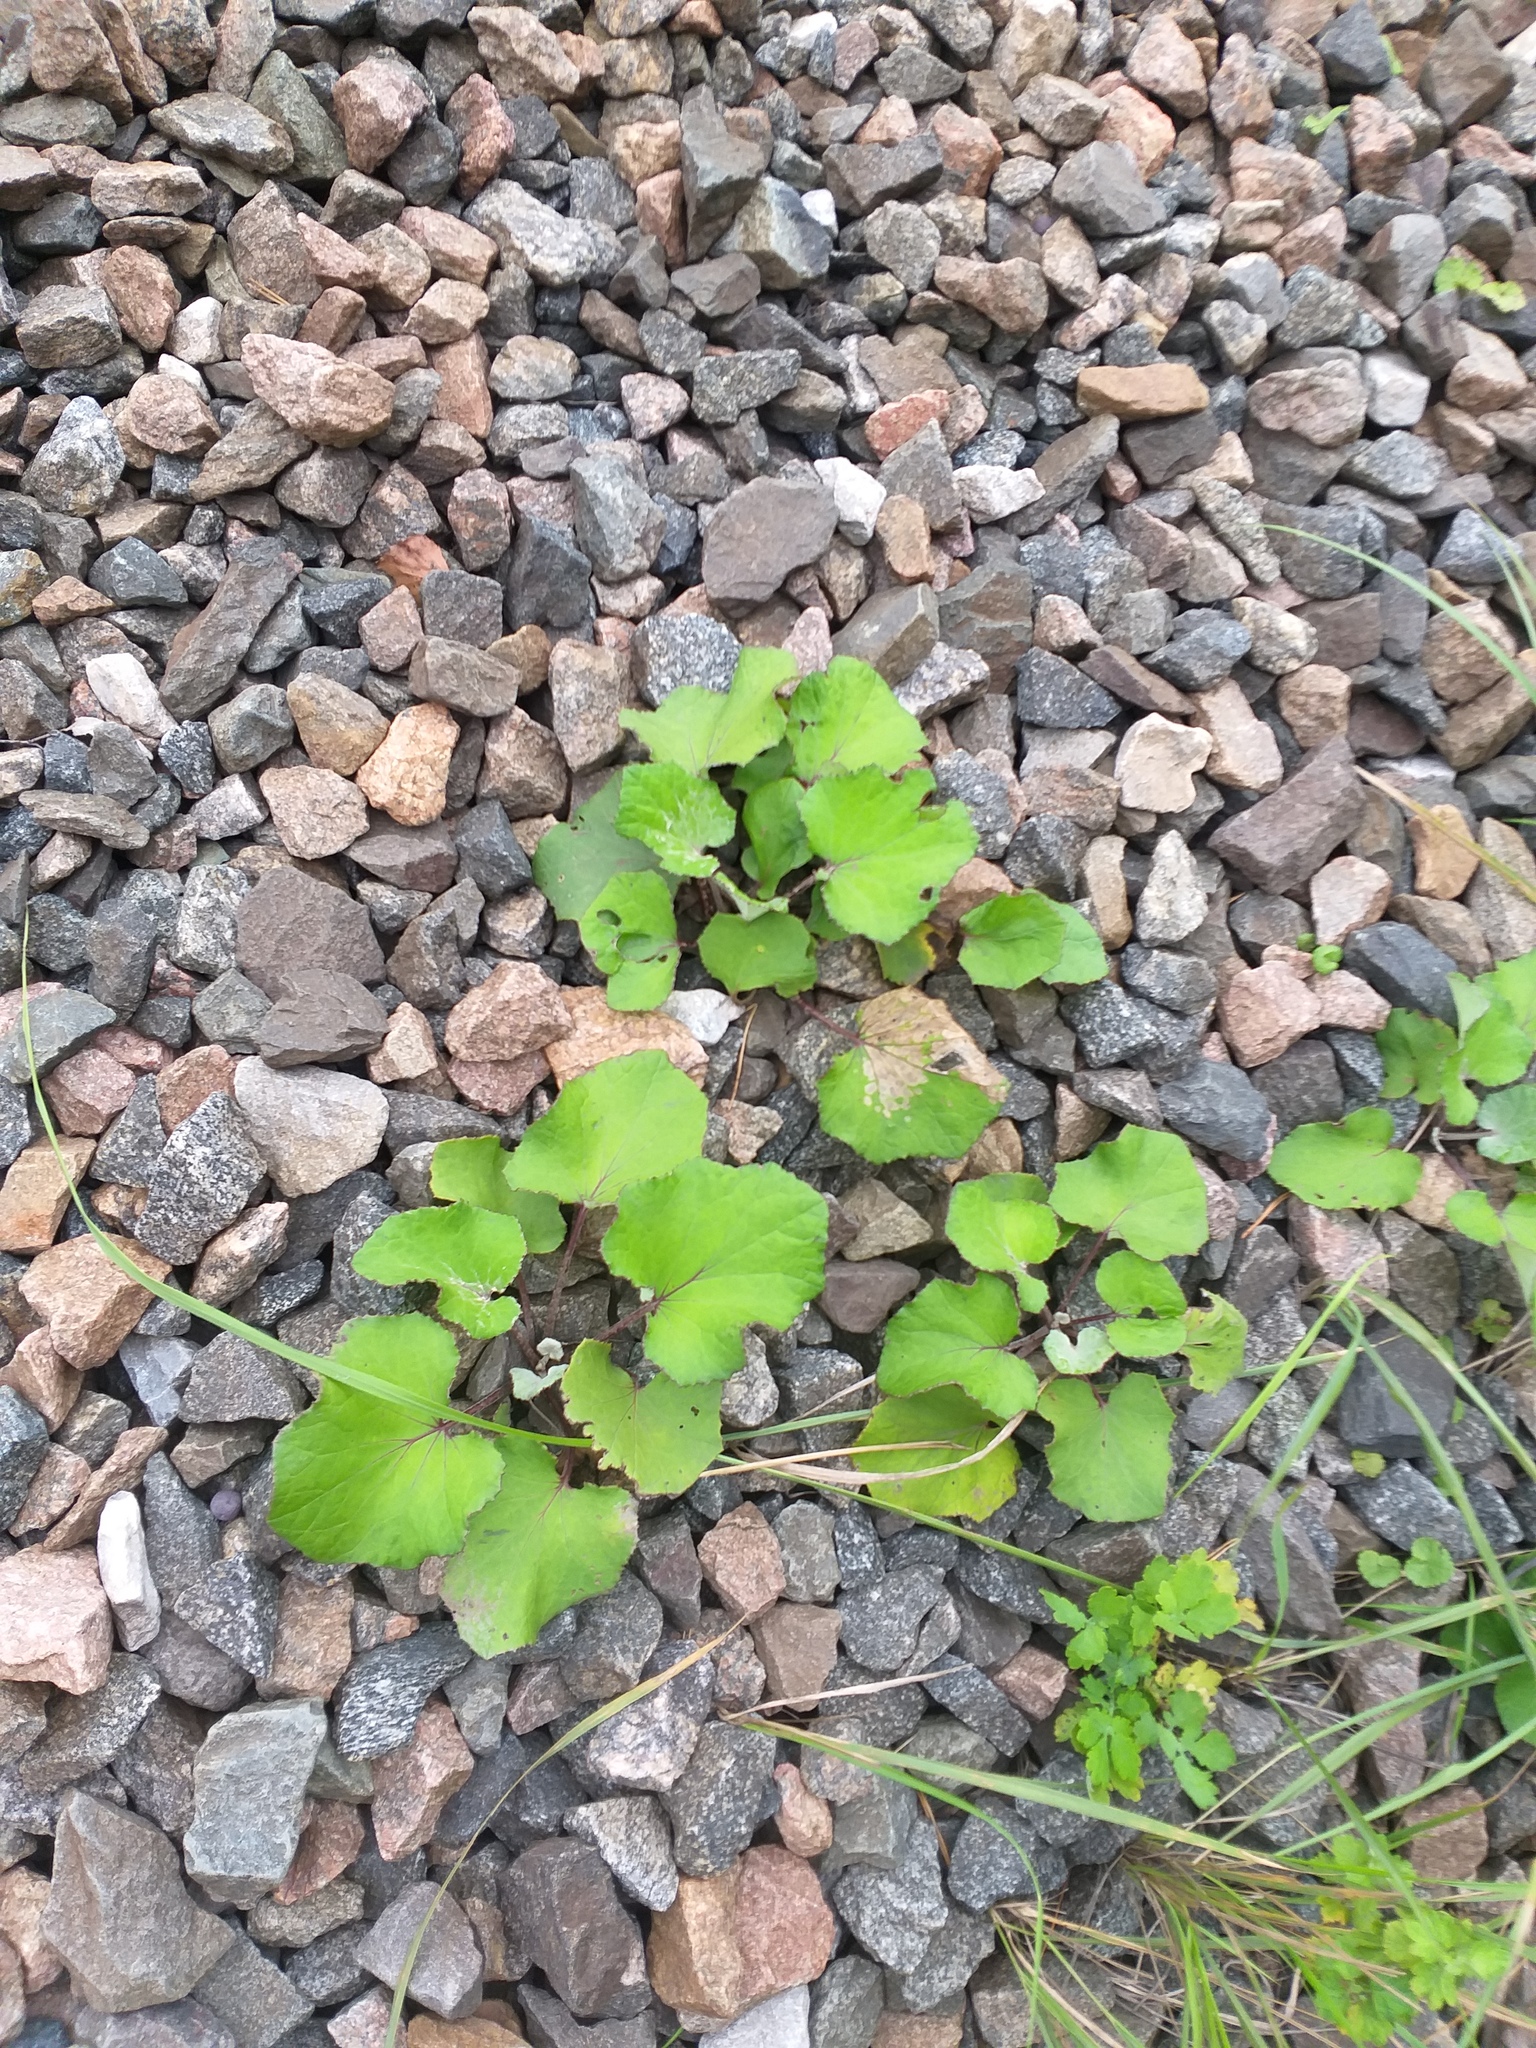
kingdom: Plantae
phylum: Tracheophyta
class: Magnoliopsida
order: Asterales
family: Asteraceae
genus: Tussilago
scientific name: Tussilago farfara
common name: Coltsfoot
